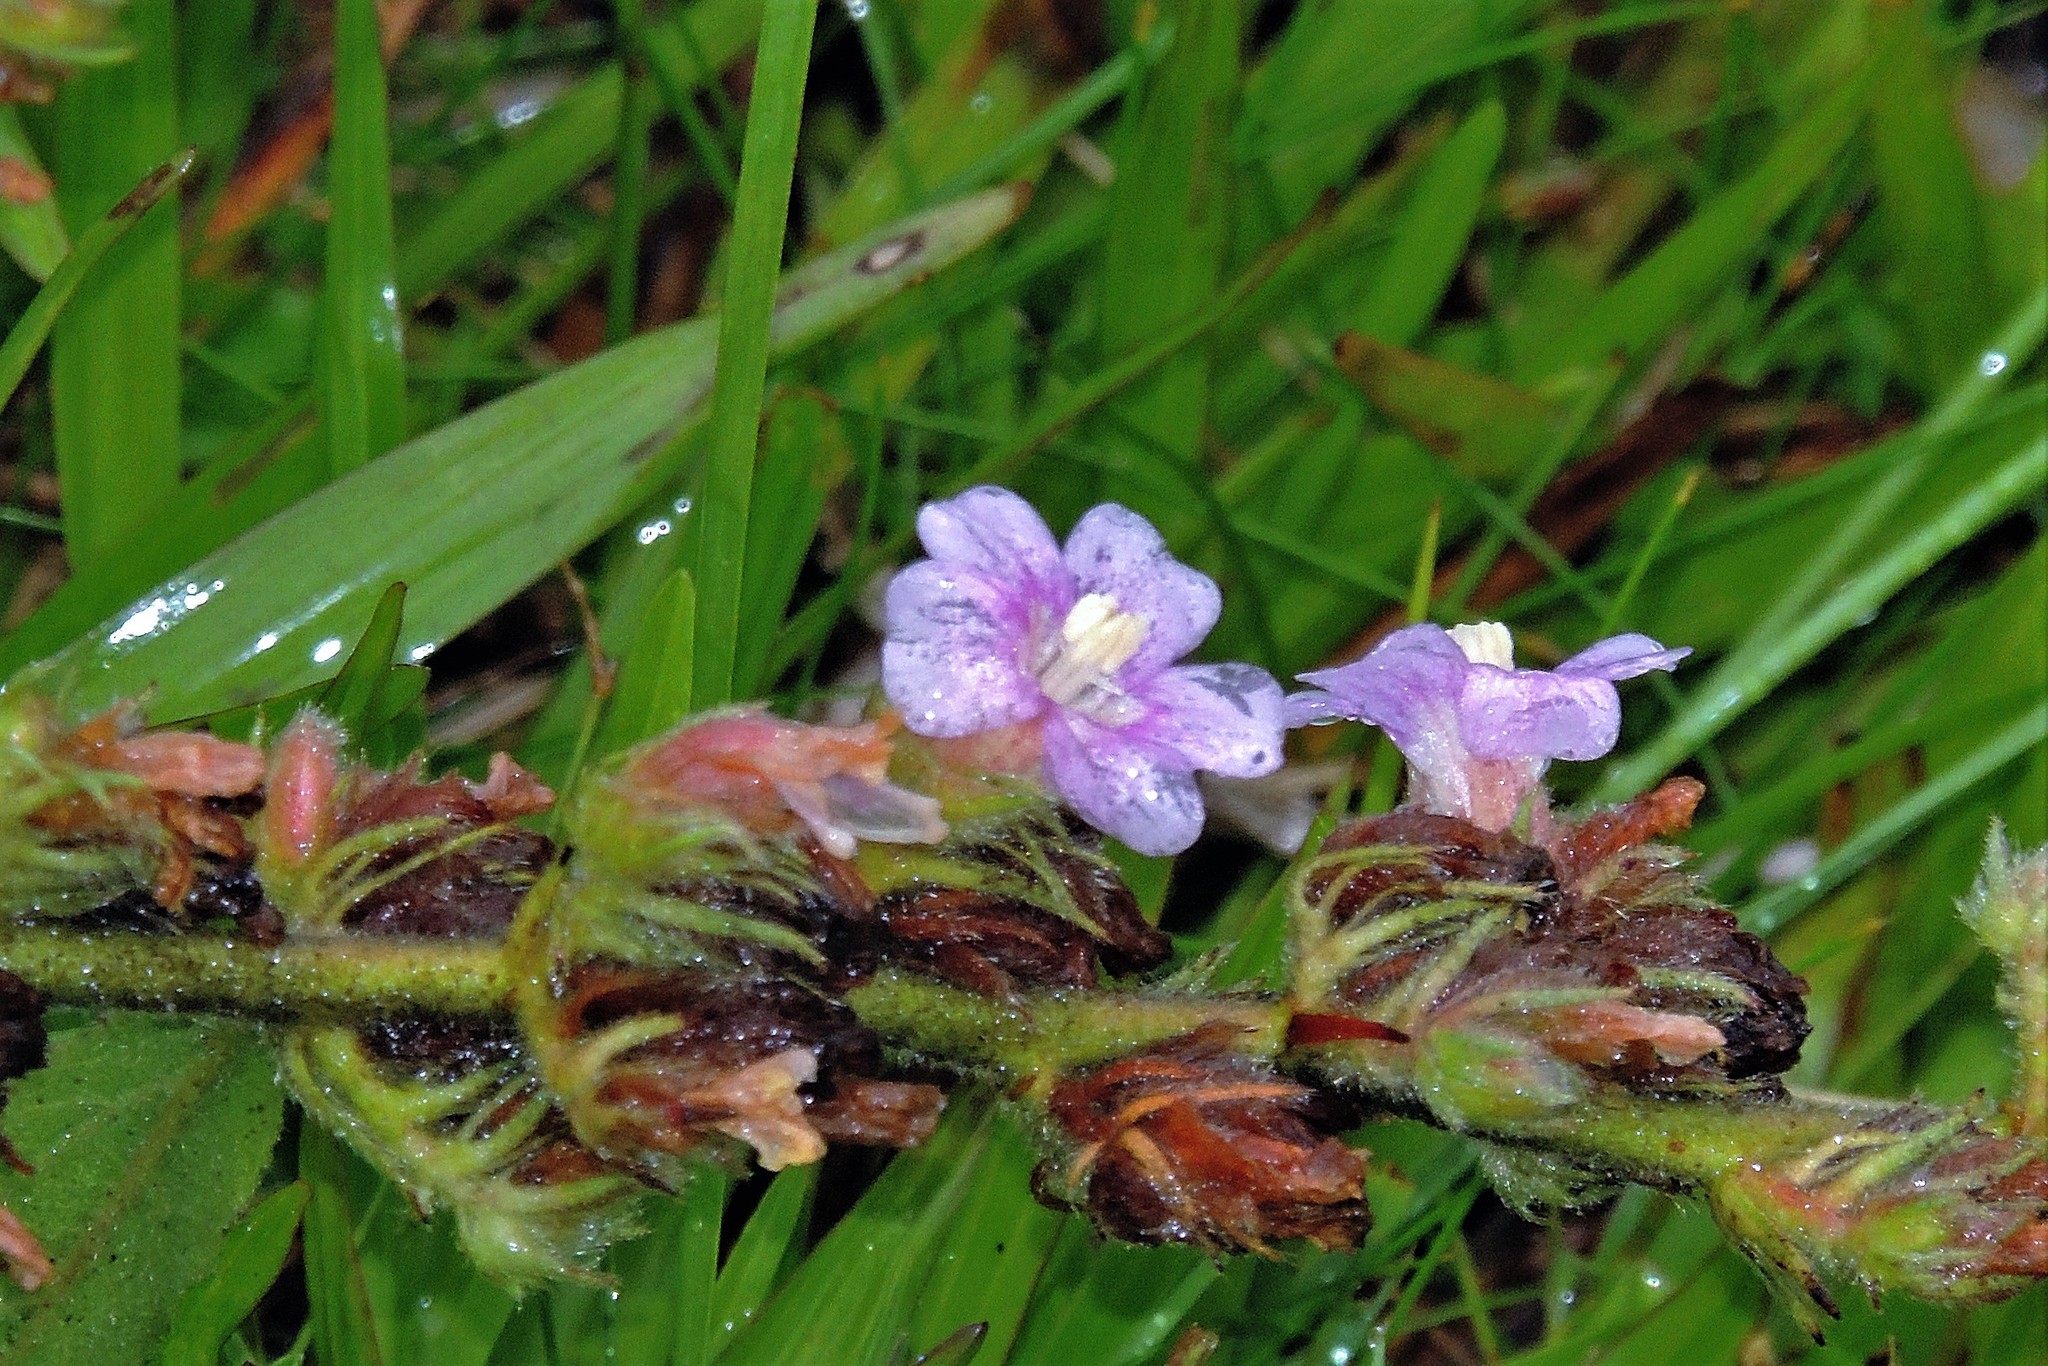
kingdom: Plantae
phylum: Tracheophyta
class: Magnoliopsida
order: Malvales
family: Malvaceae
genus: Melochia
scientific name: Melochia spicata
